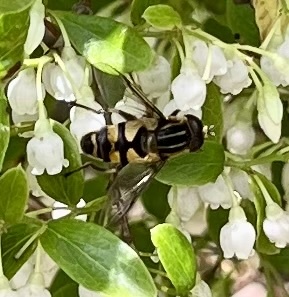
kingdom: Animalia
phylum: Arthropoda
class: Insecta
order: Diptera
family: Syrphidae
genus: Helophilus
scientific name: Helophilus fasciatus
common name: Narrow-headed marsh fly
